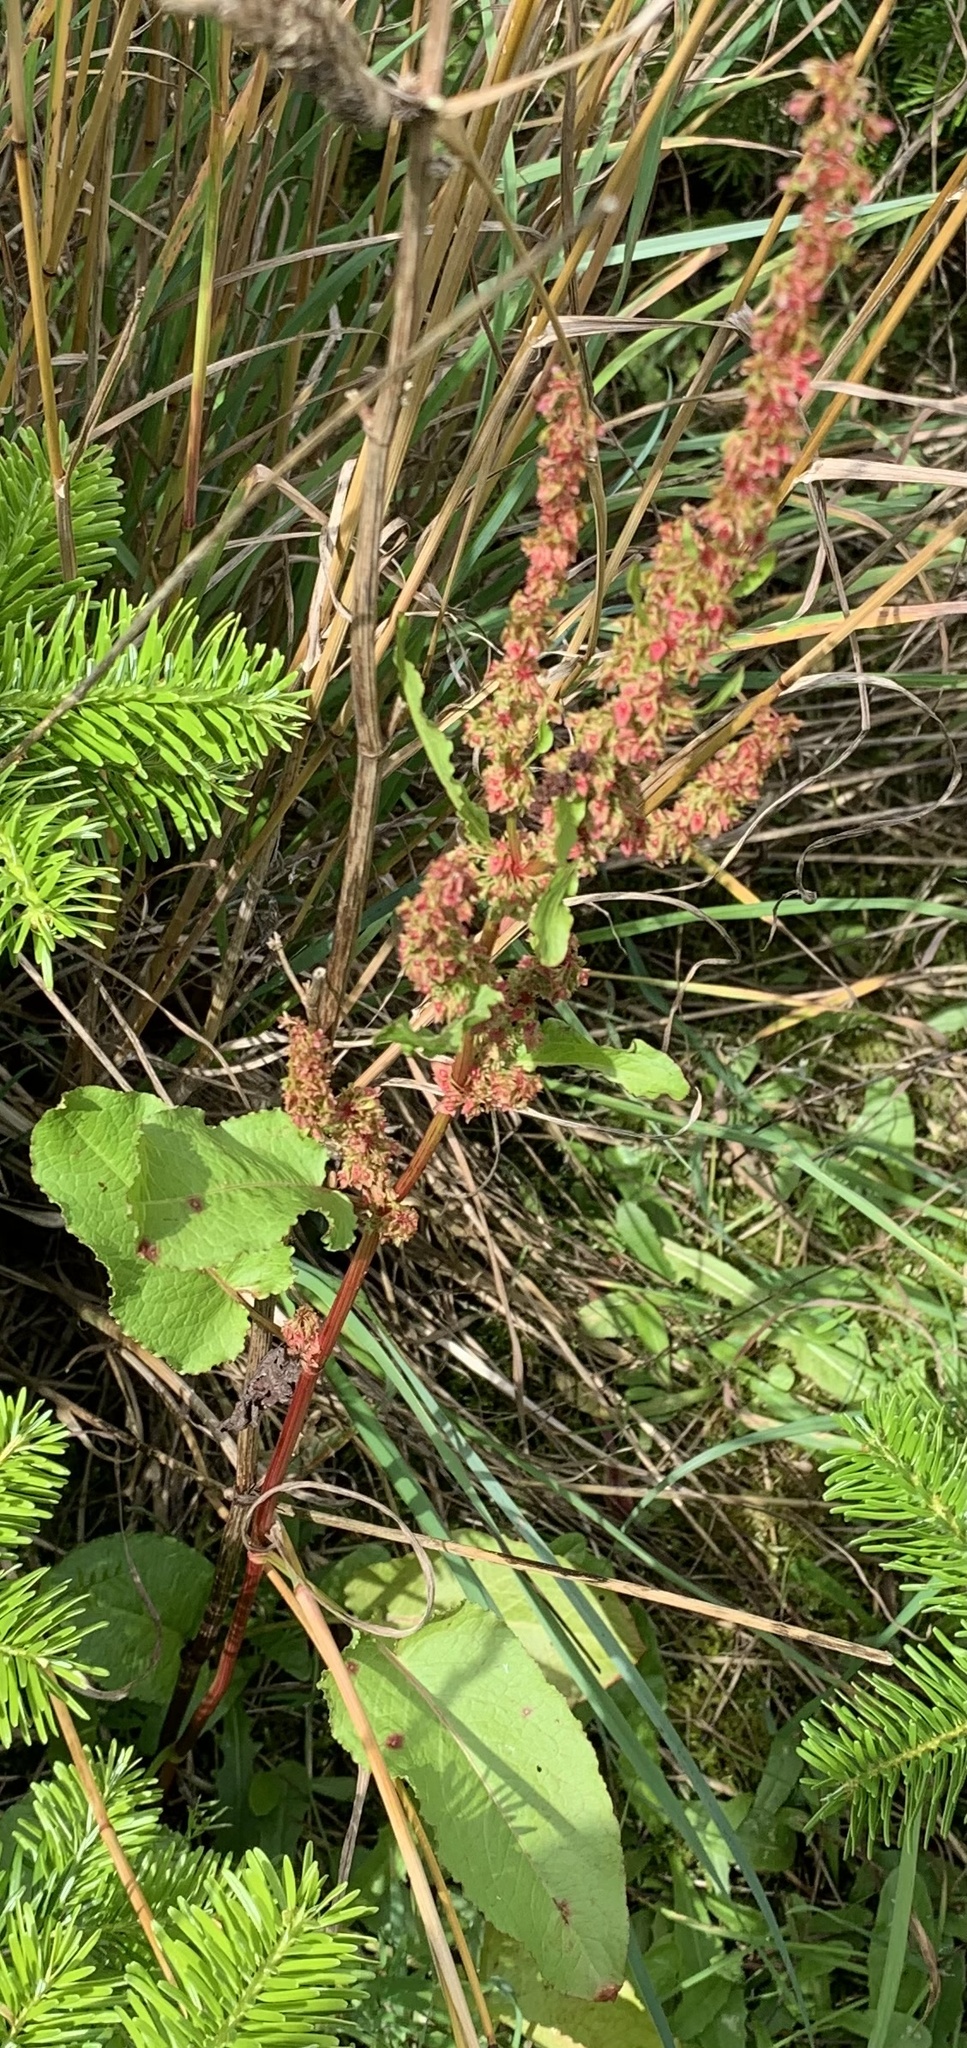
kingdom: Plantae
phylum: Tracheophyta
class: Magnoliopsida
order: Caryophyllales
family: Polygonaceae
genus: Rumex
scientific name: Rumex obtusifolius
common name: Bitter dock
